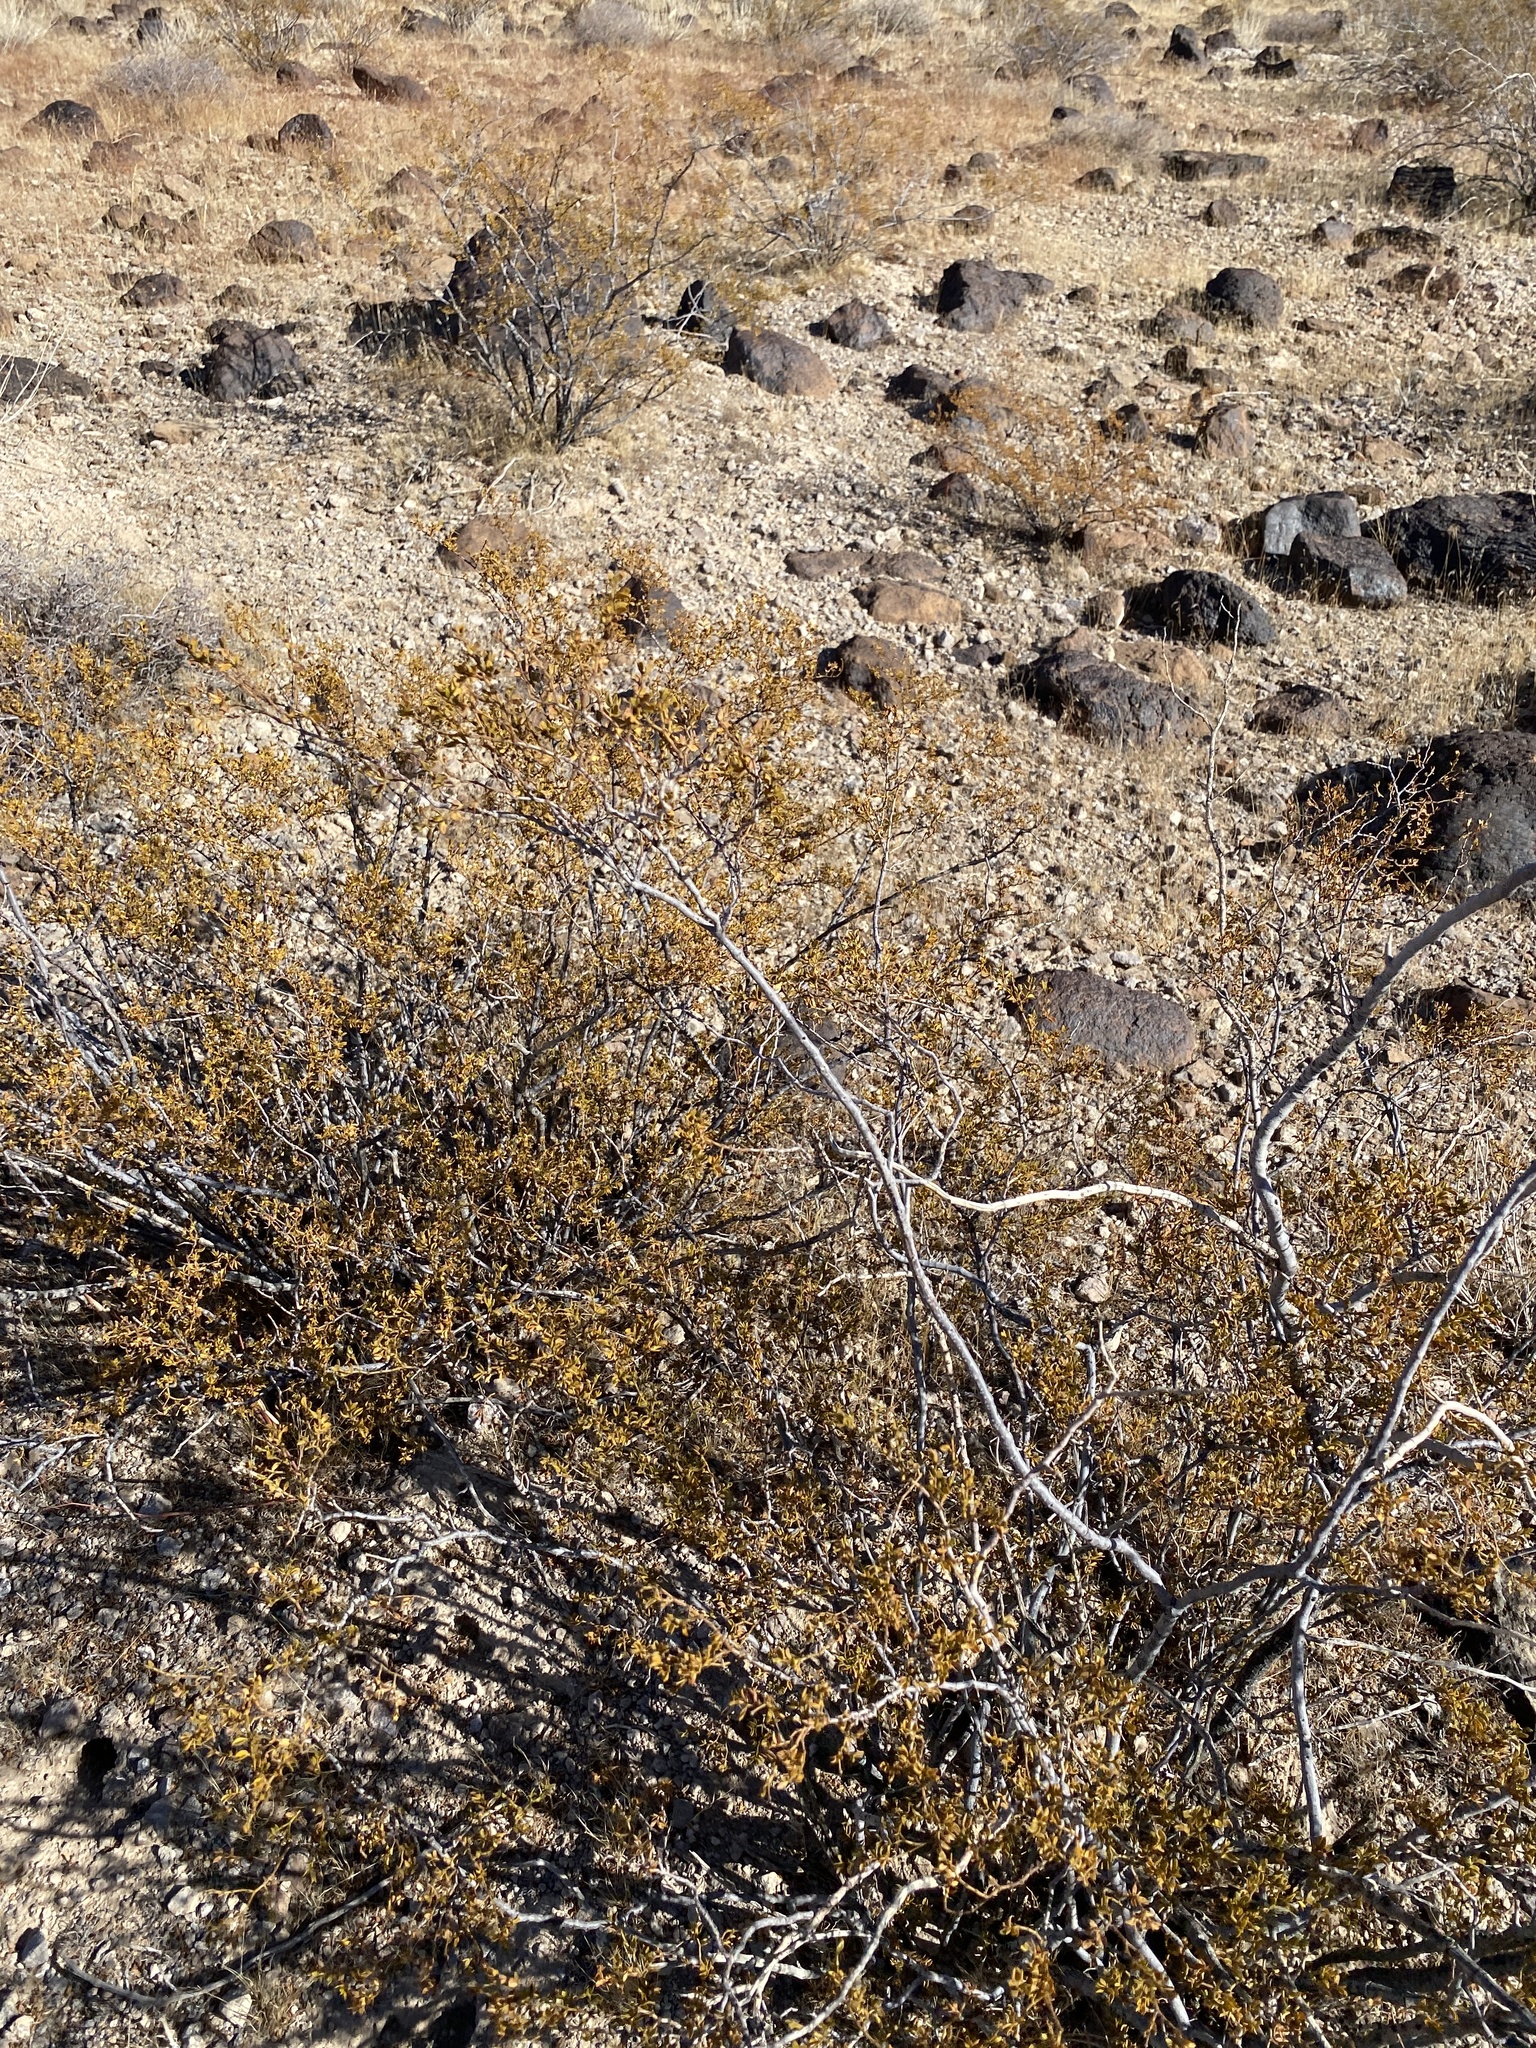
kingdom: Plantae
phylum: Tracheophyta
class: Magnoliopsida
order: Zygophyllales
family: Zygophyllaceae
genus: Larrea
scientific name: Larrea tridentata
